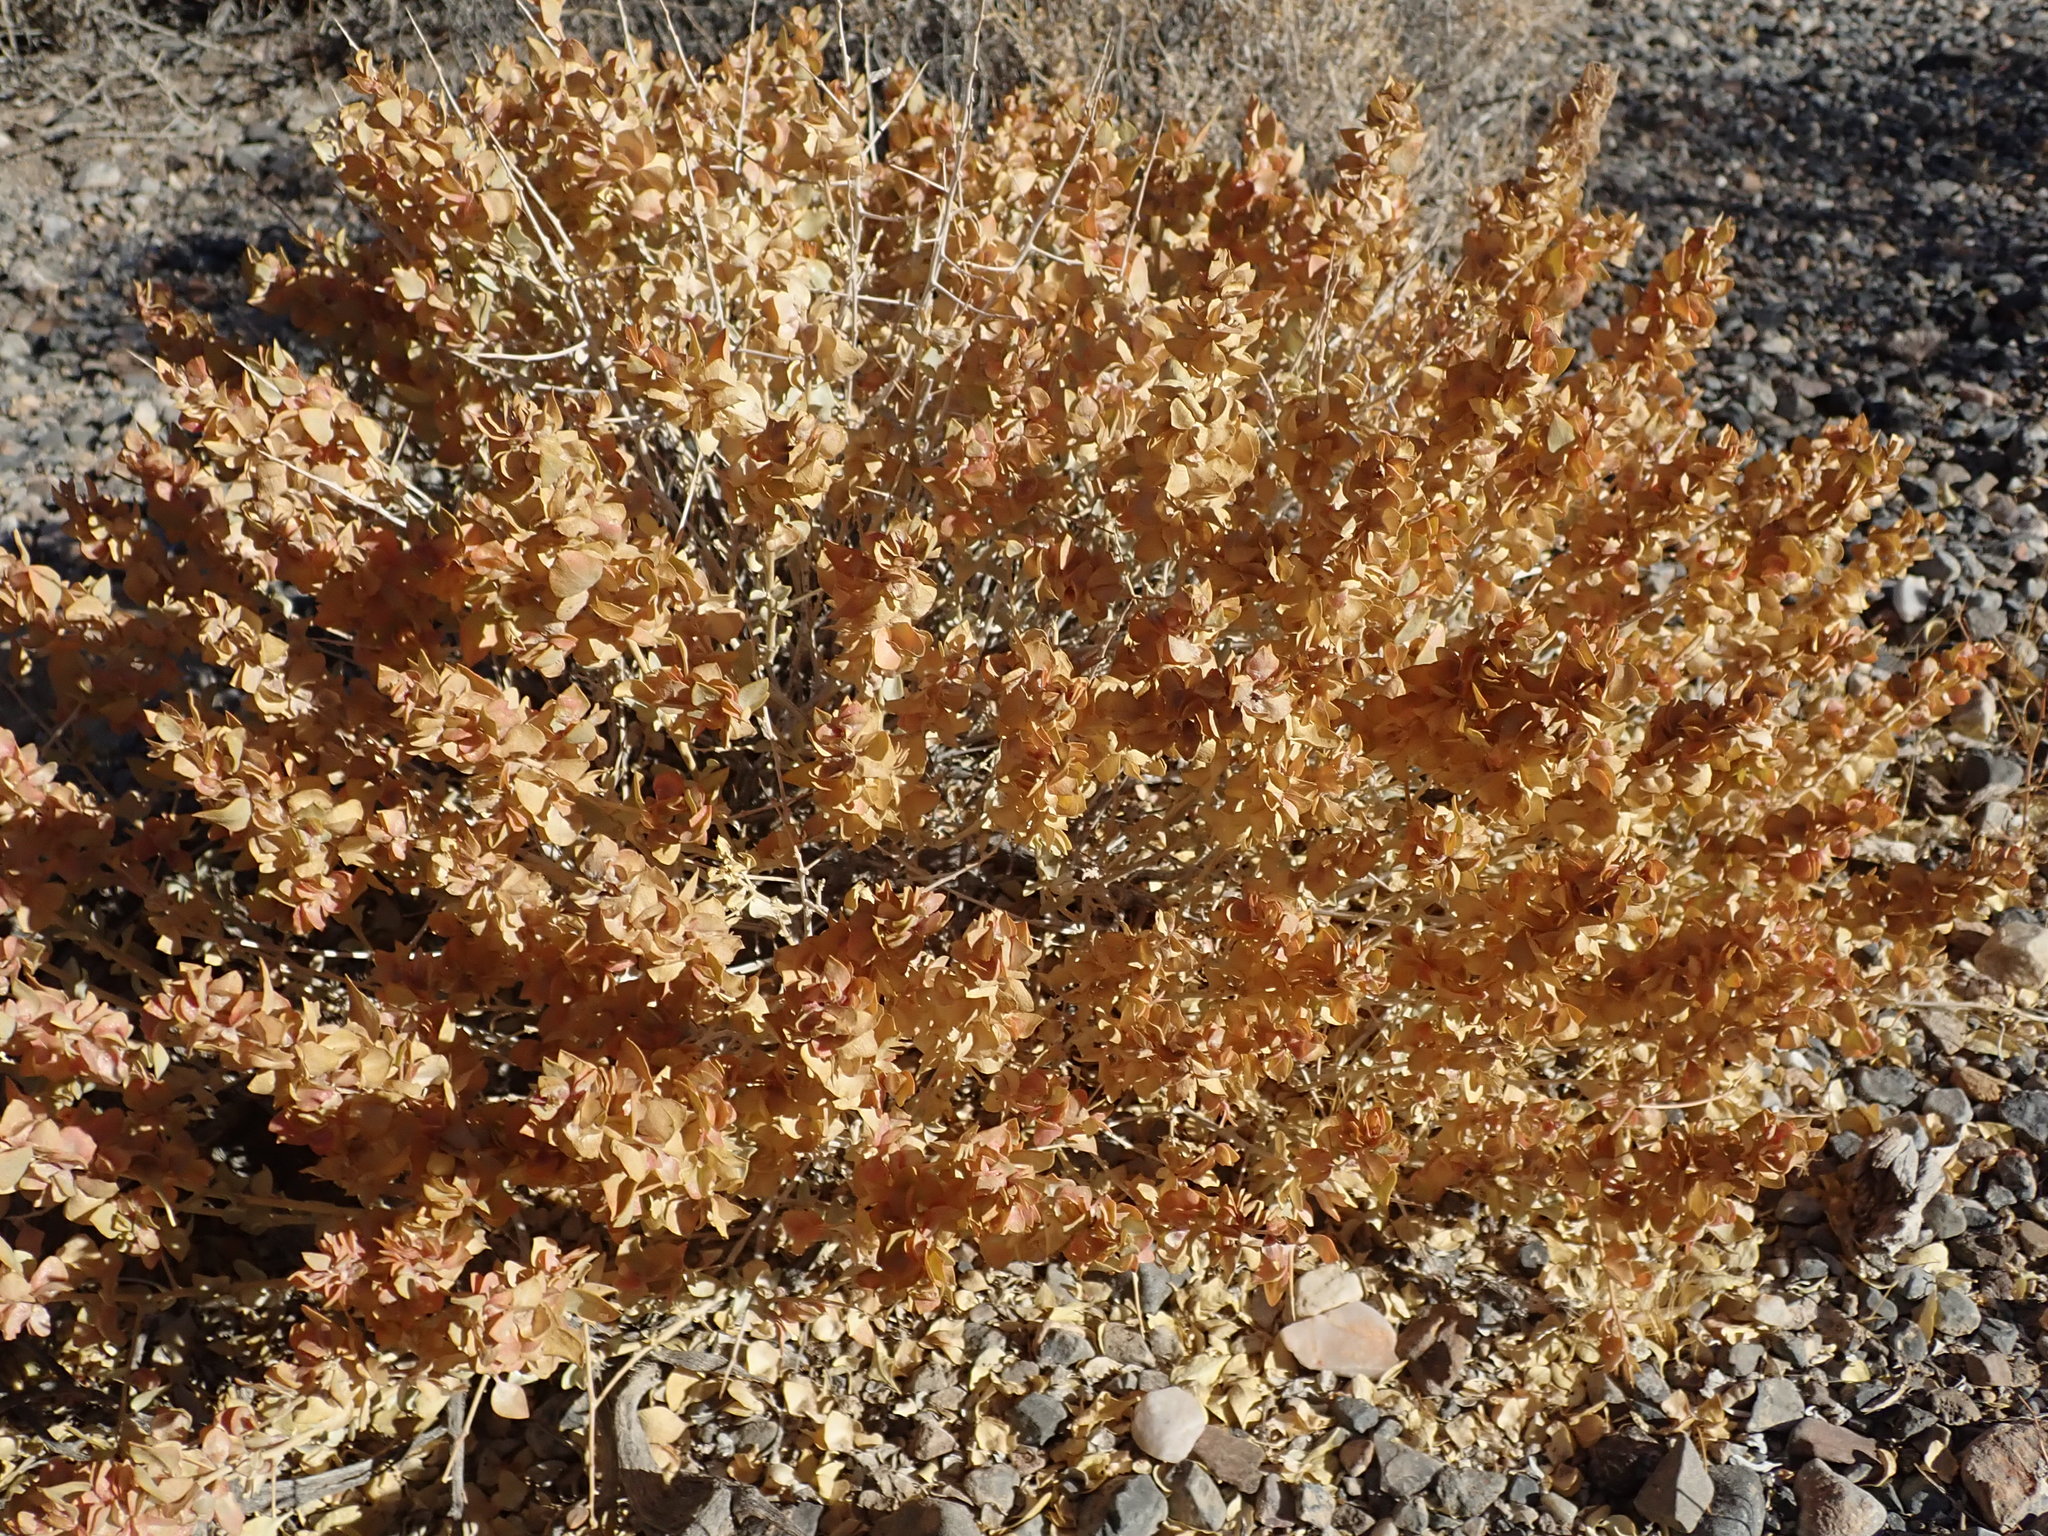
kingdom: Plantae
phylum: Tracheophyta
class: Magnoliopsida
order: Caryophyllales
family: Amaranthaceae
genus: Atriplex
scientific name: Atriplex confertifolia
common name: Shadscale
